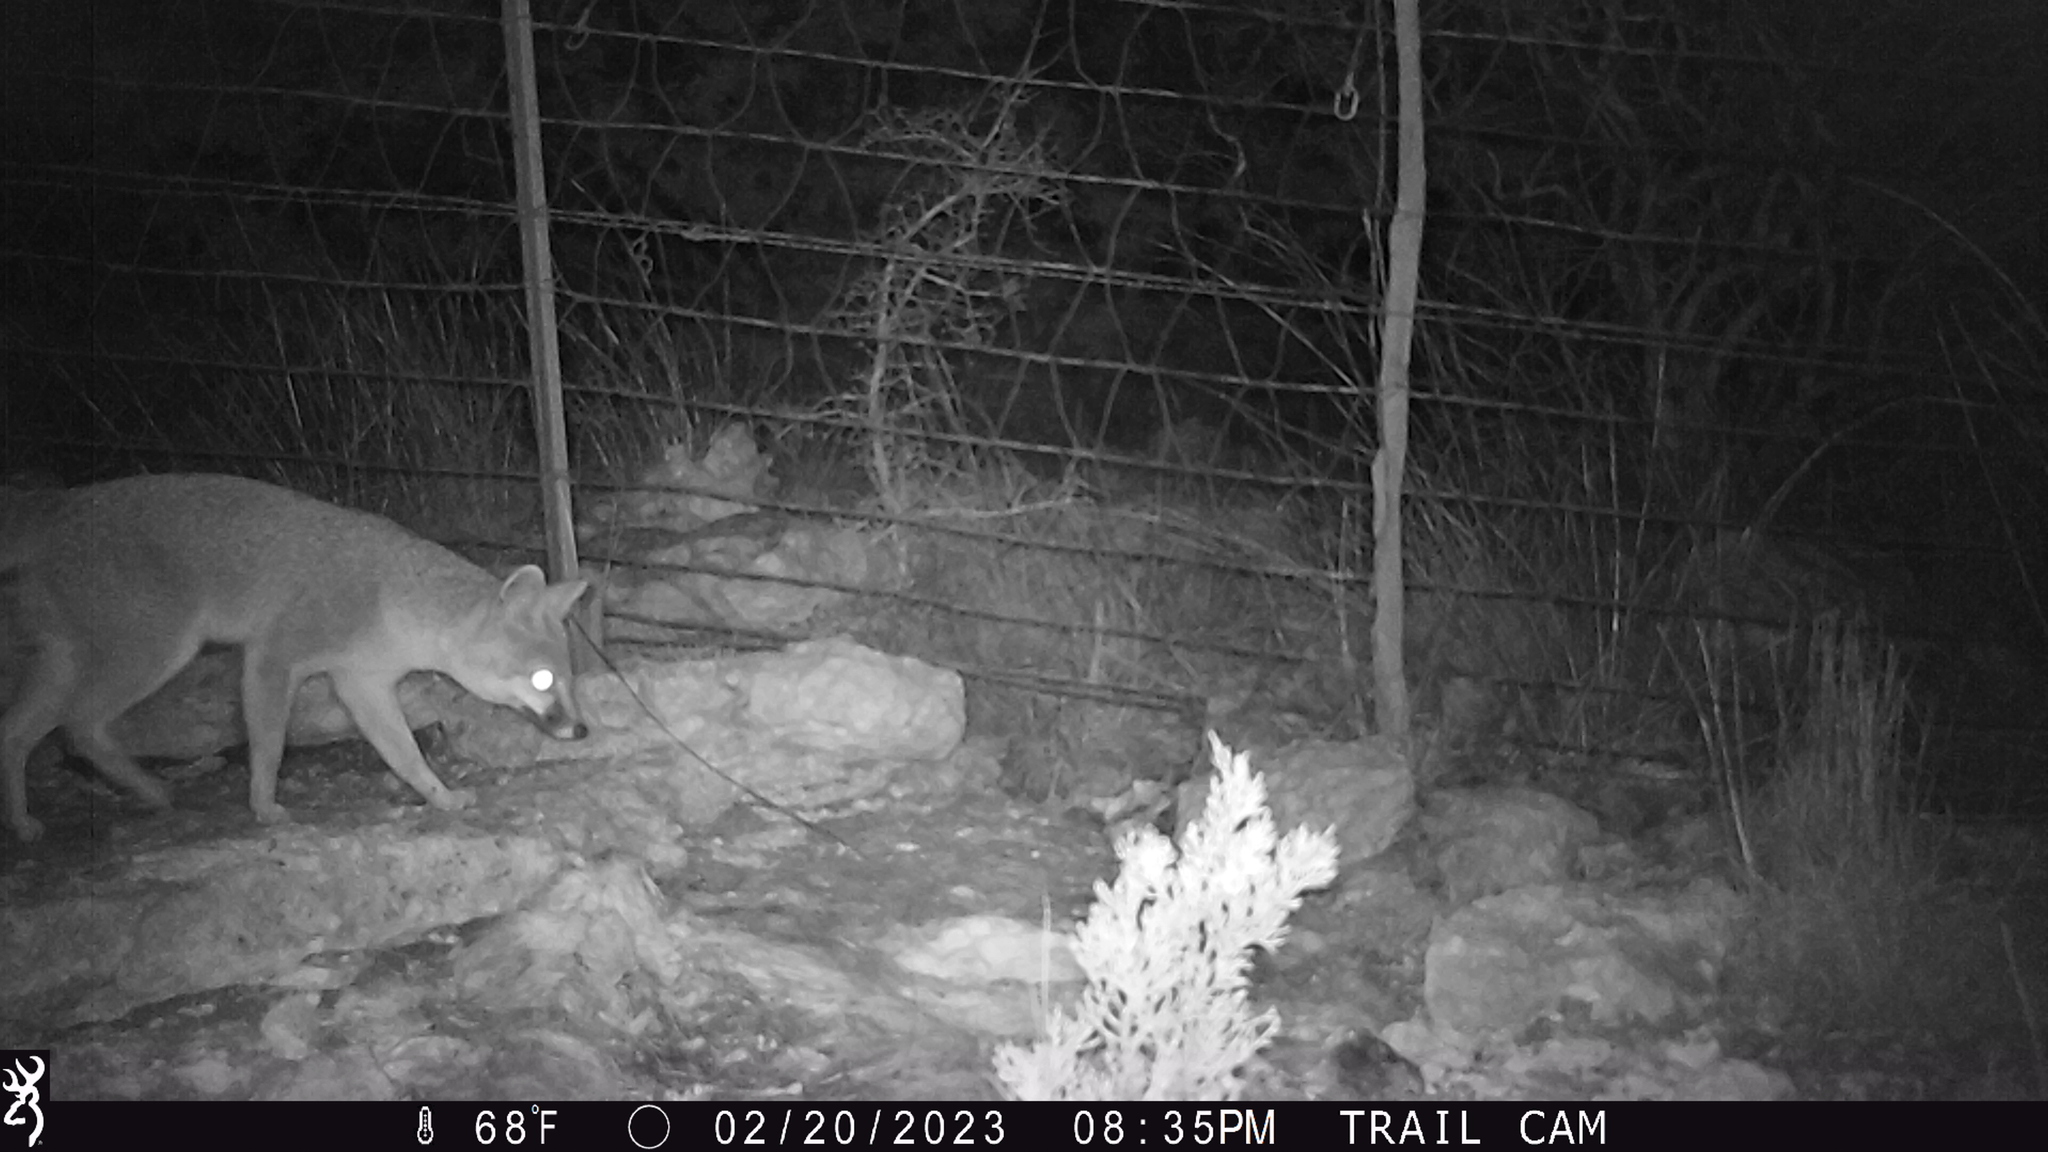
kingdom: Animalia
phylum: Chordata
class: Mammalia
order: Carnivora
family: Canidae
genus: Urocyon
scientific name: Urocyon cinereoargenteus
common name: Gray fox
